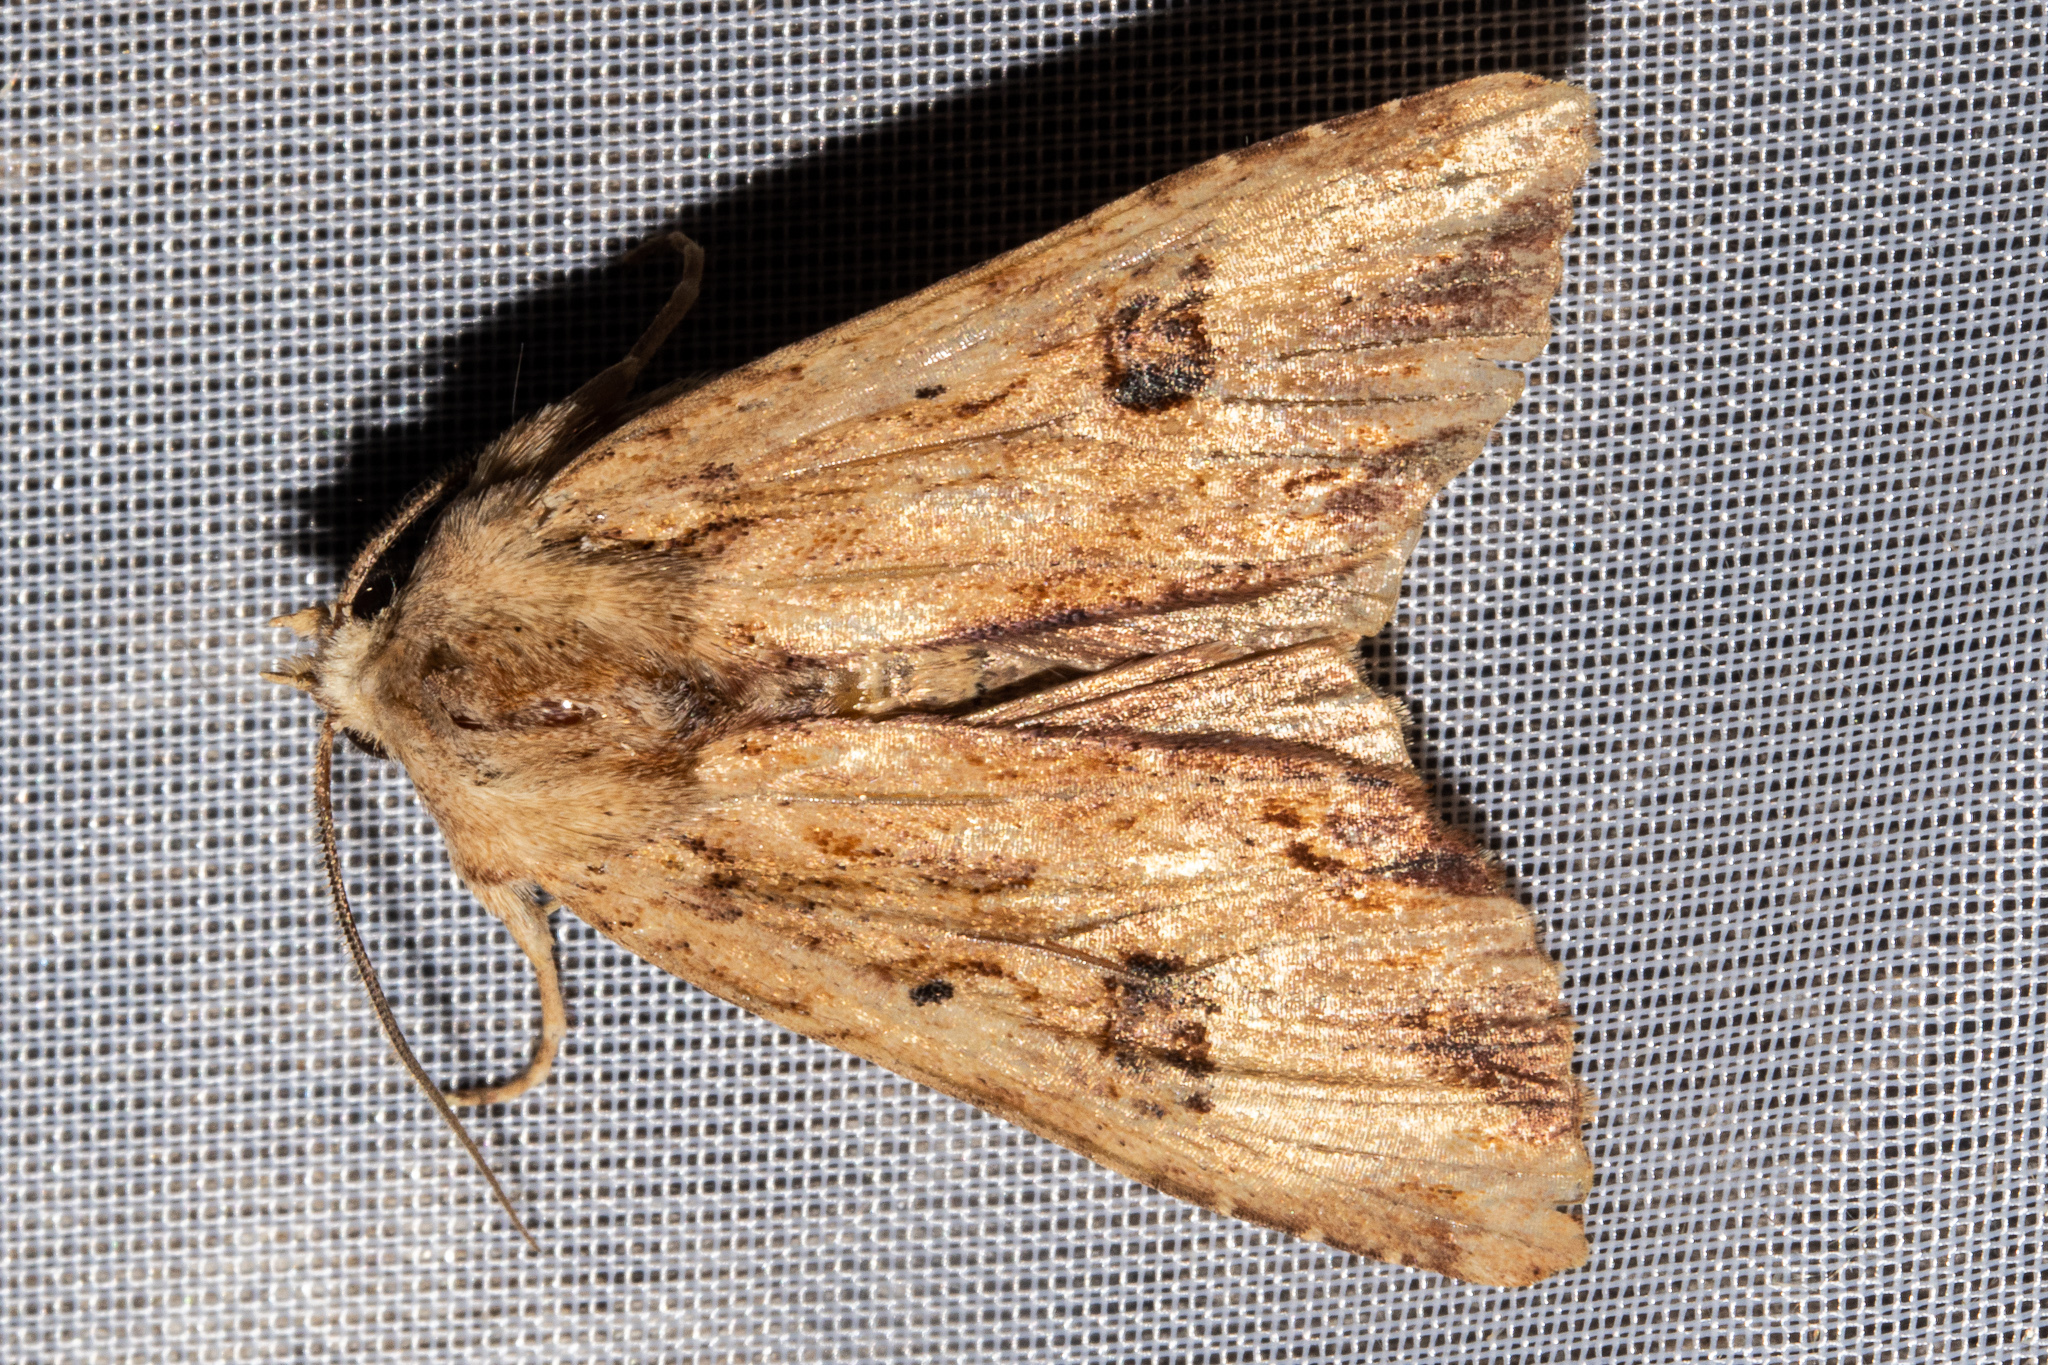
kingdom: Animalia
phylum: Arthropoda
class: Insecta
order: Lepidoptera
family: Noctuidae
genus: Ichneutica
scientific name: Ichneutica
